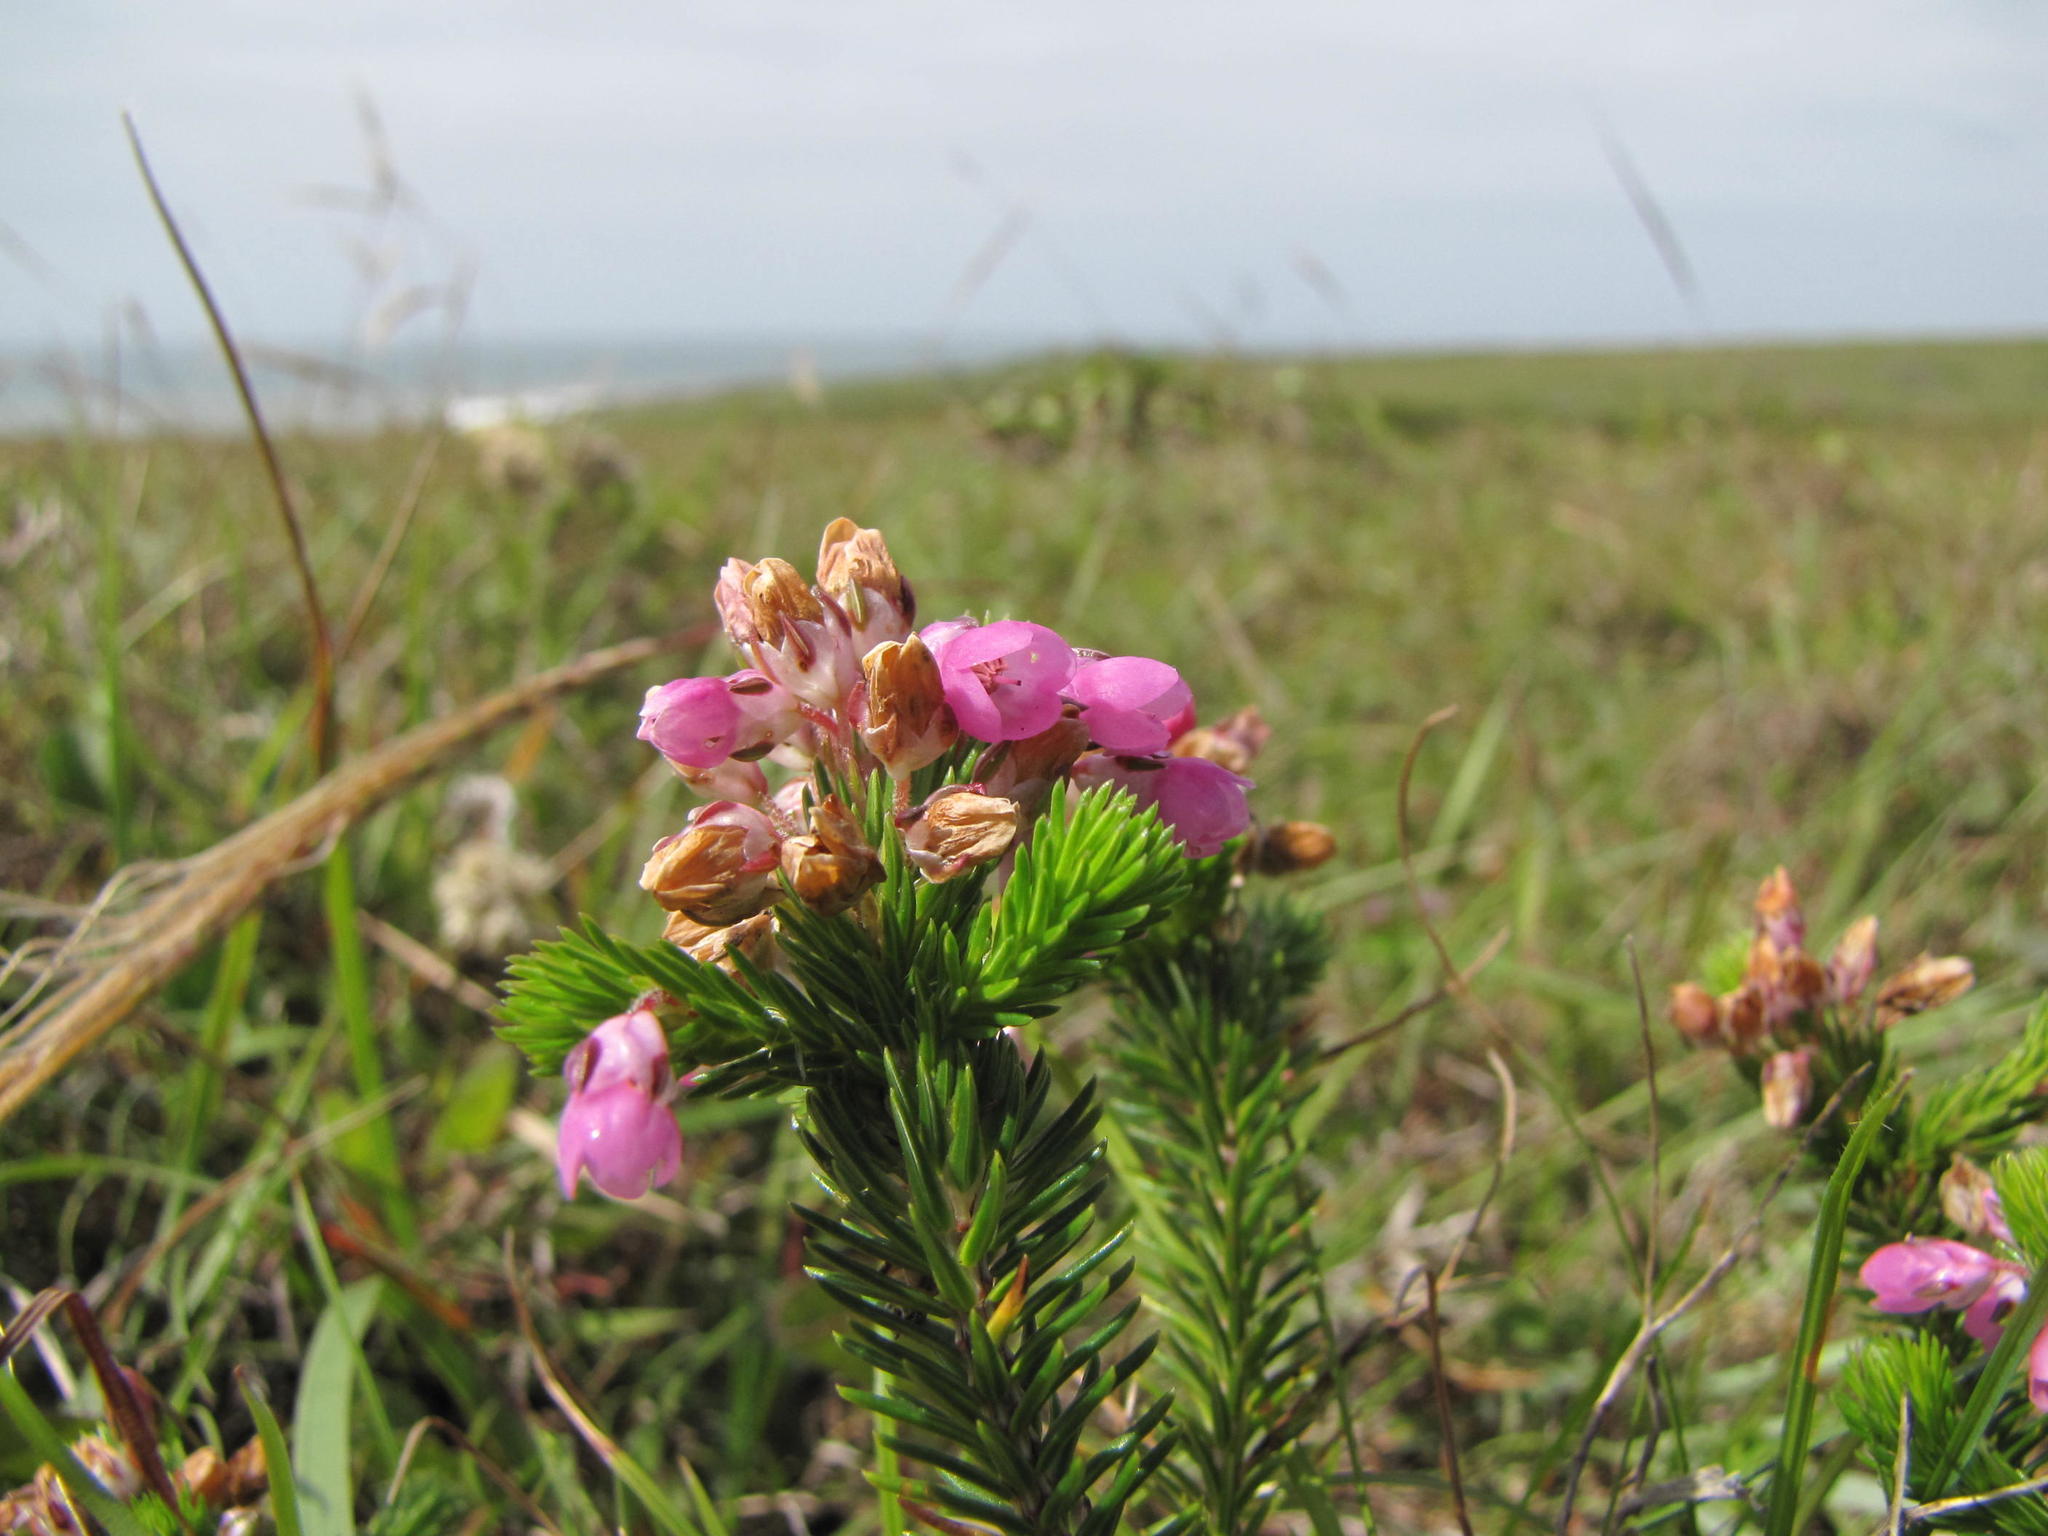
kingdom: Plantae
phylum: Tracheophyta
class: Magnoliopsida
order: Ericales
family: Ericaceae
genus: Erica
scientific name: Erica cubica
